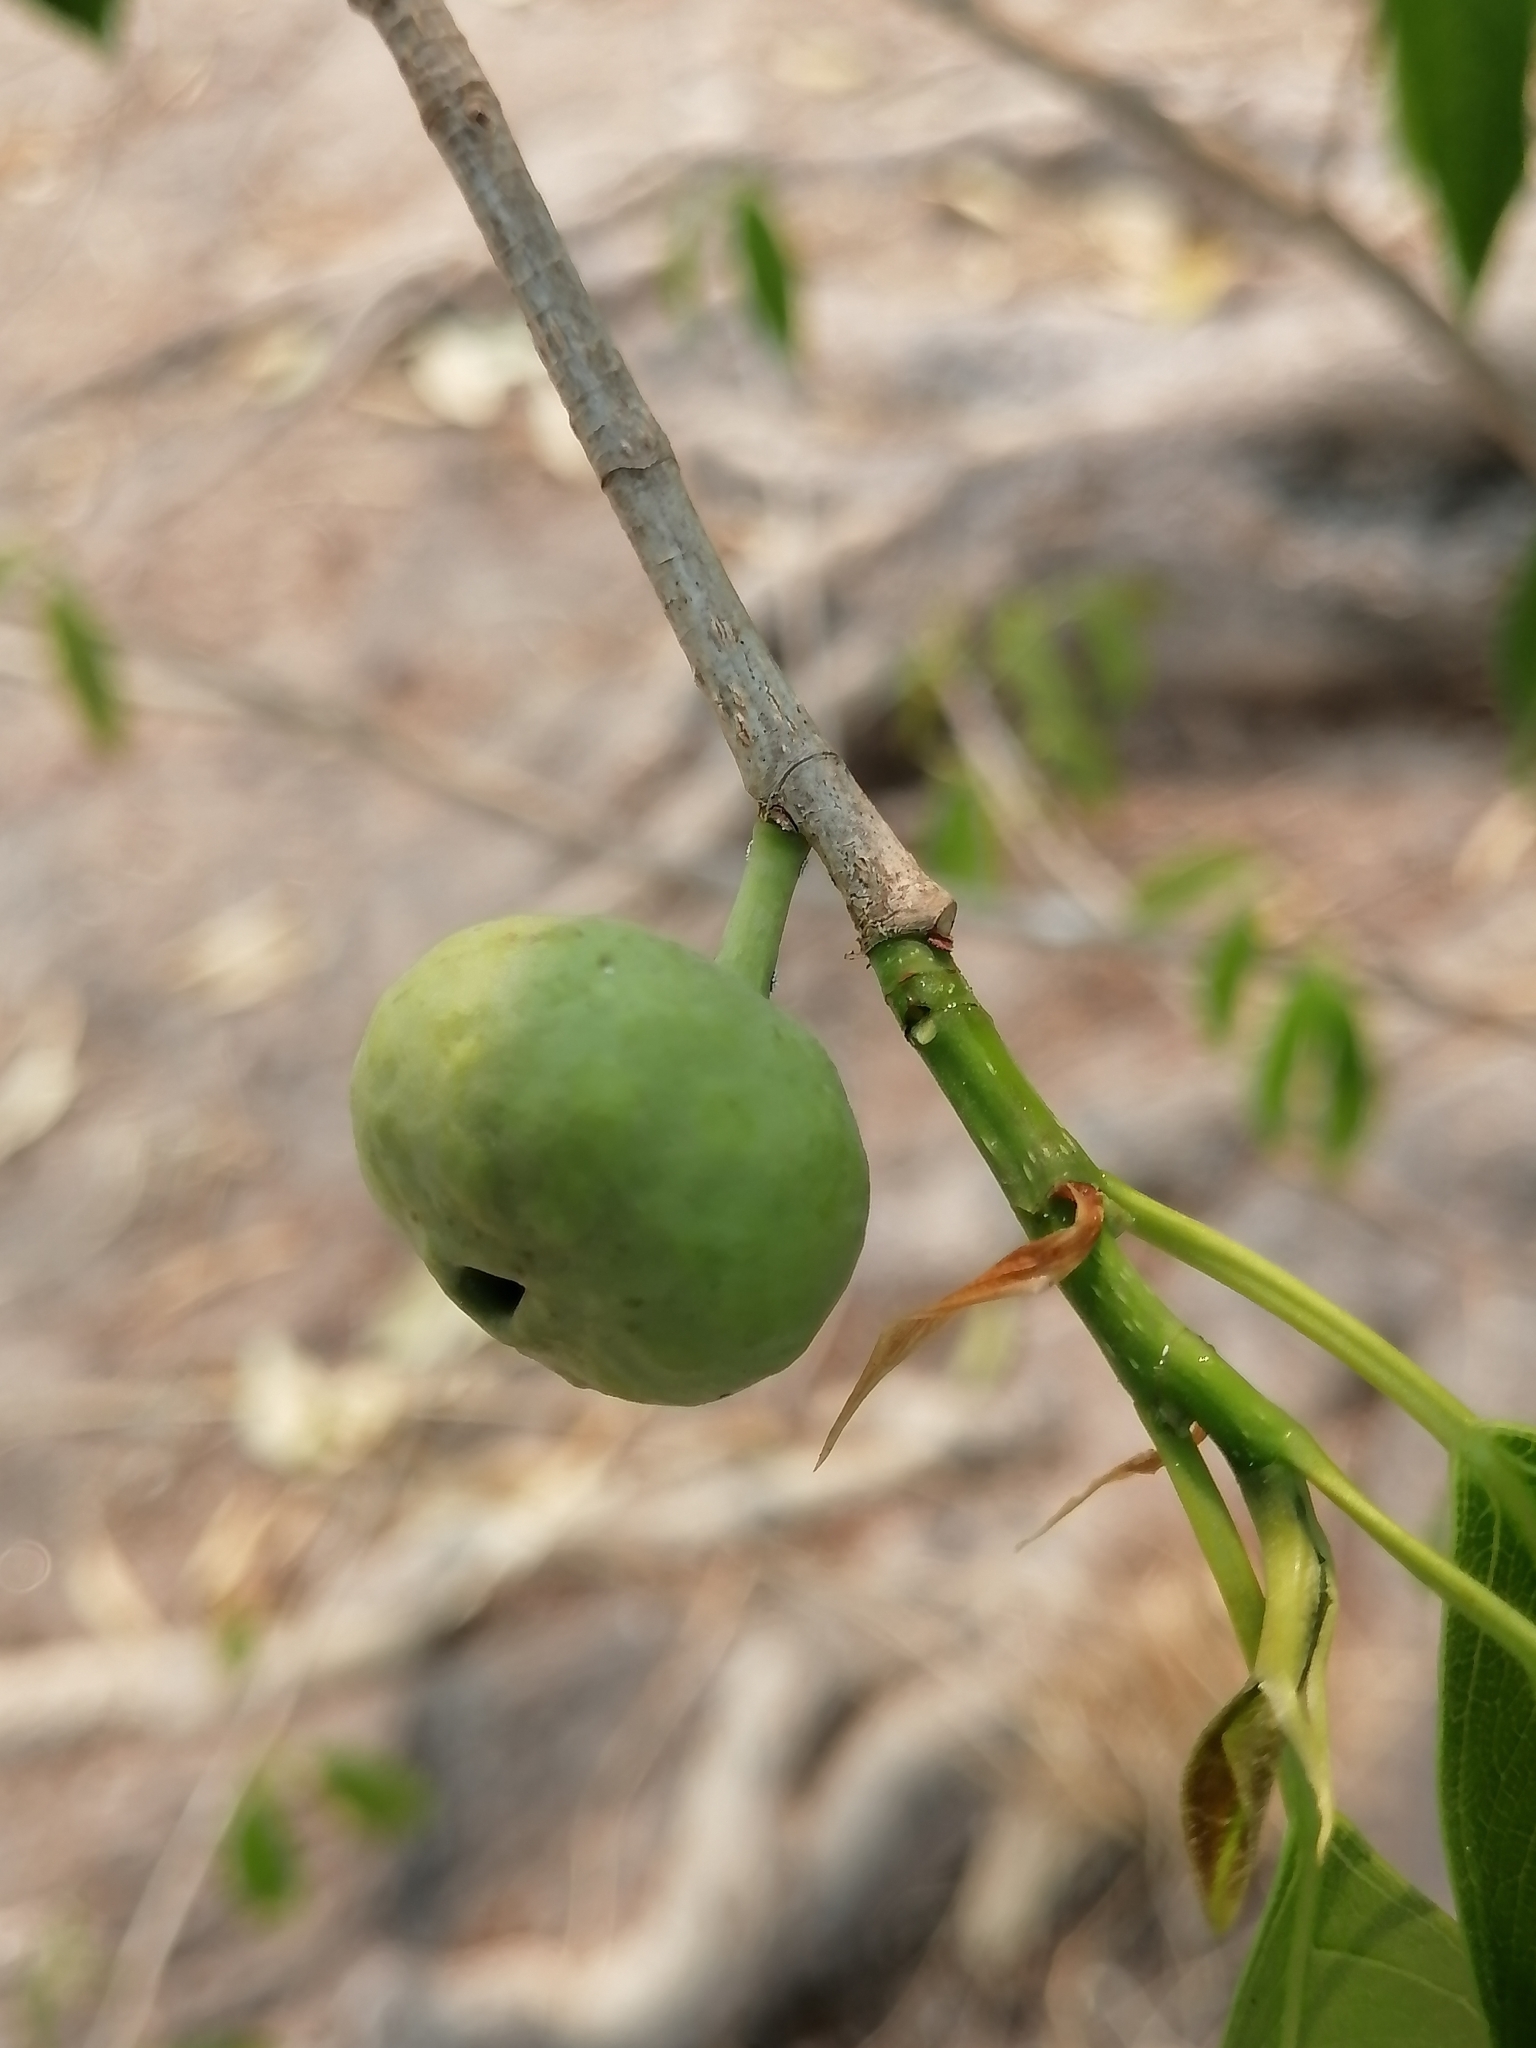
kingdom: Plantae
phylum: Tracheophyta
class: Magnoliopsida
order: Rosales
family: Moraceae
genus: Ficus
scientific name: Ficus pertusa
